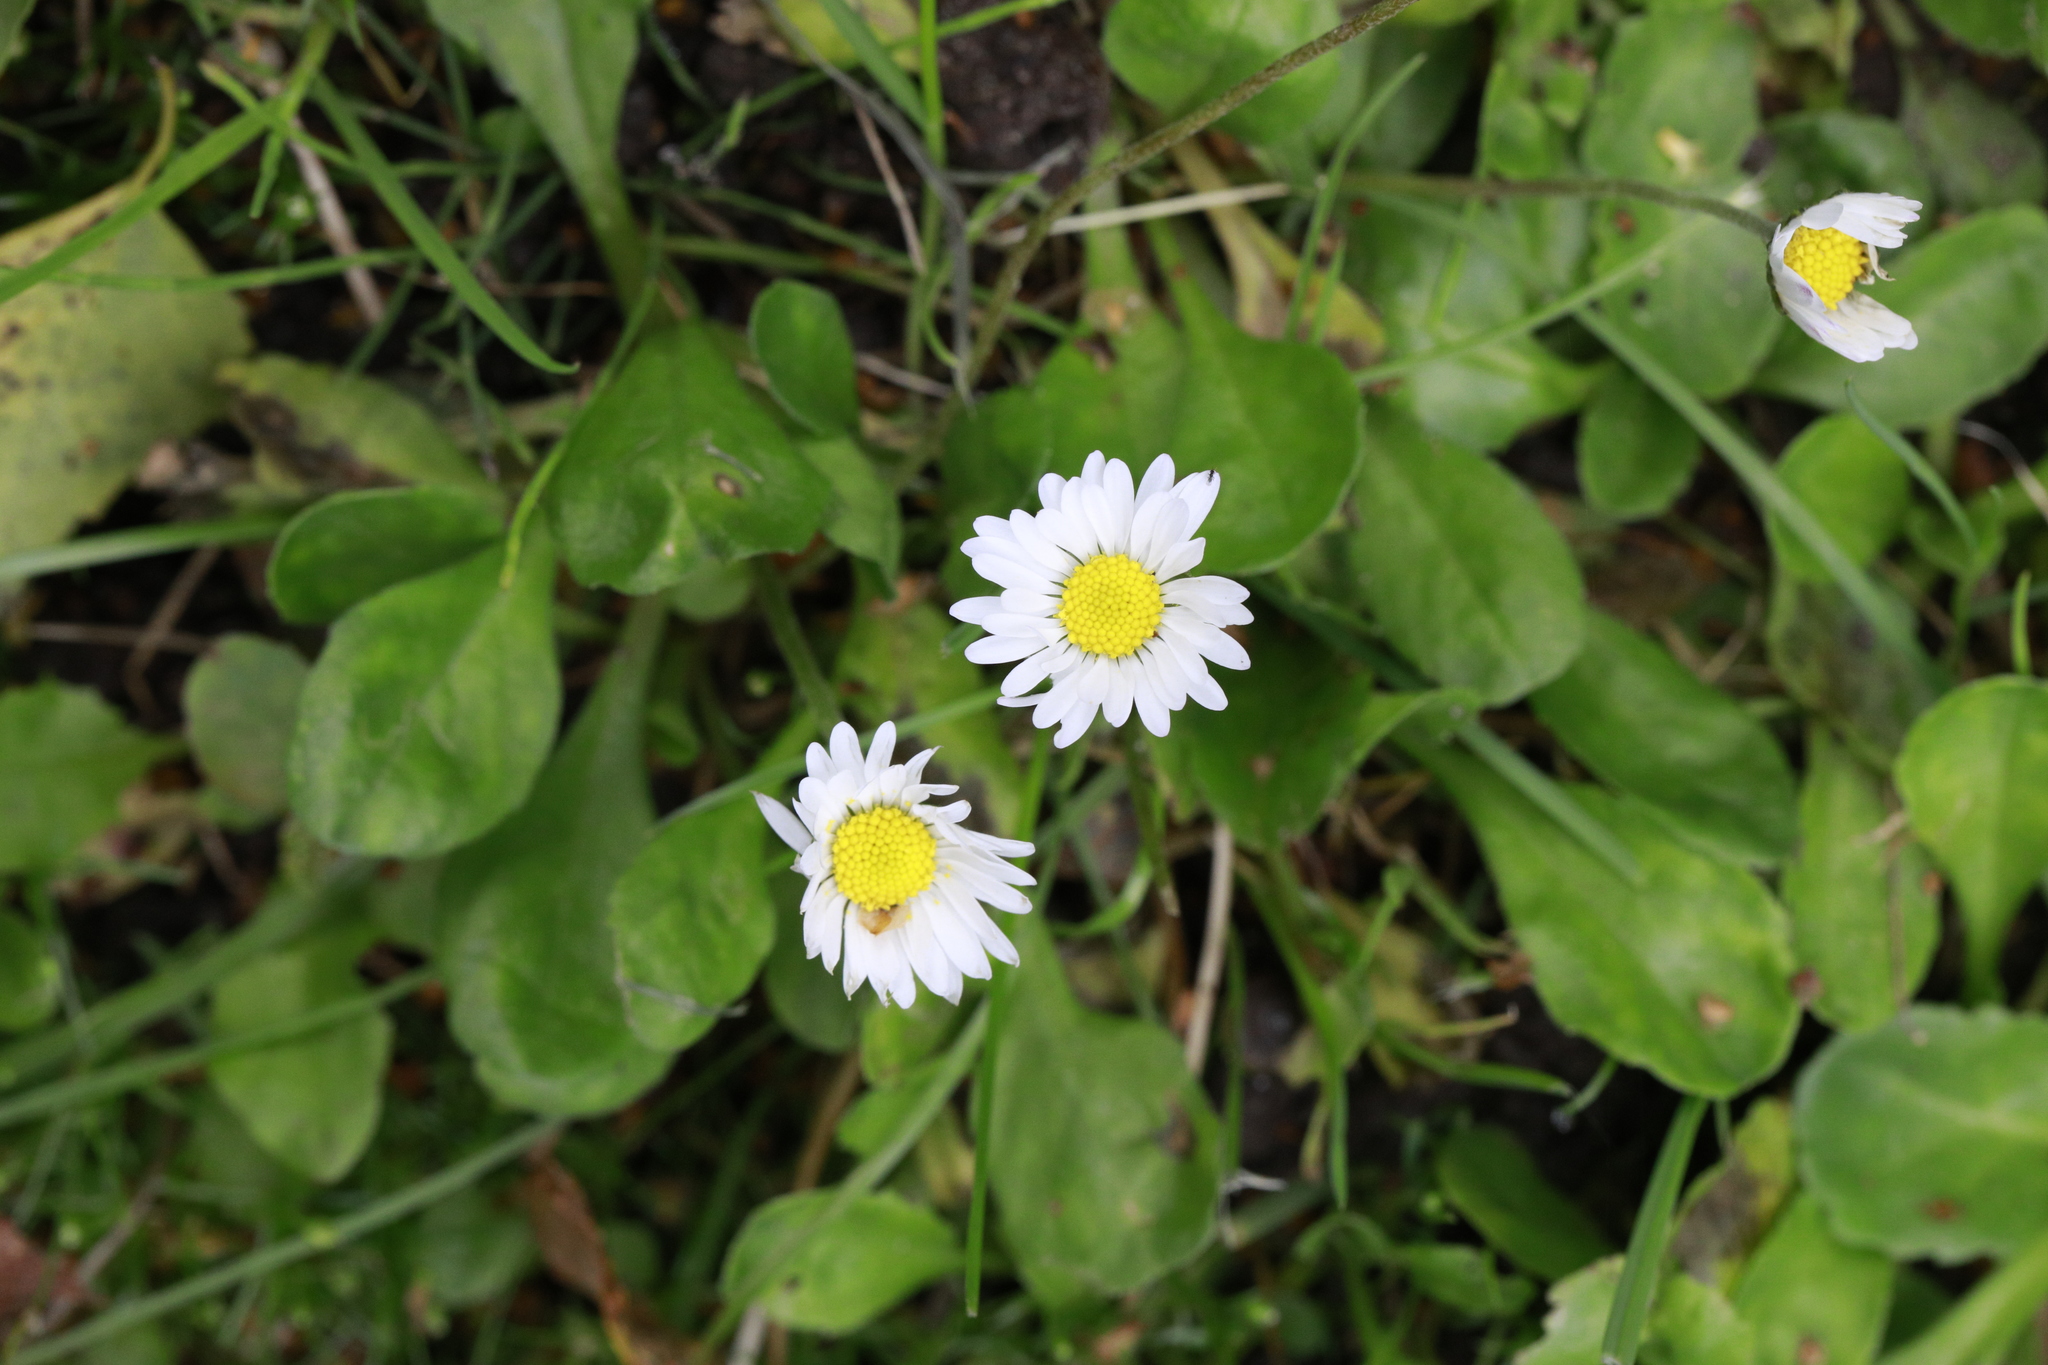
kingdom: Plantae
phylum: Tracheophyta
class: Magnoliopsida
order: Asterales
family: Asteraceae
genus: Bellis
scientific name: Bellis perennis
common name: Lawndaisy
